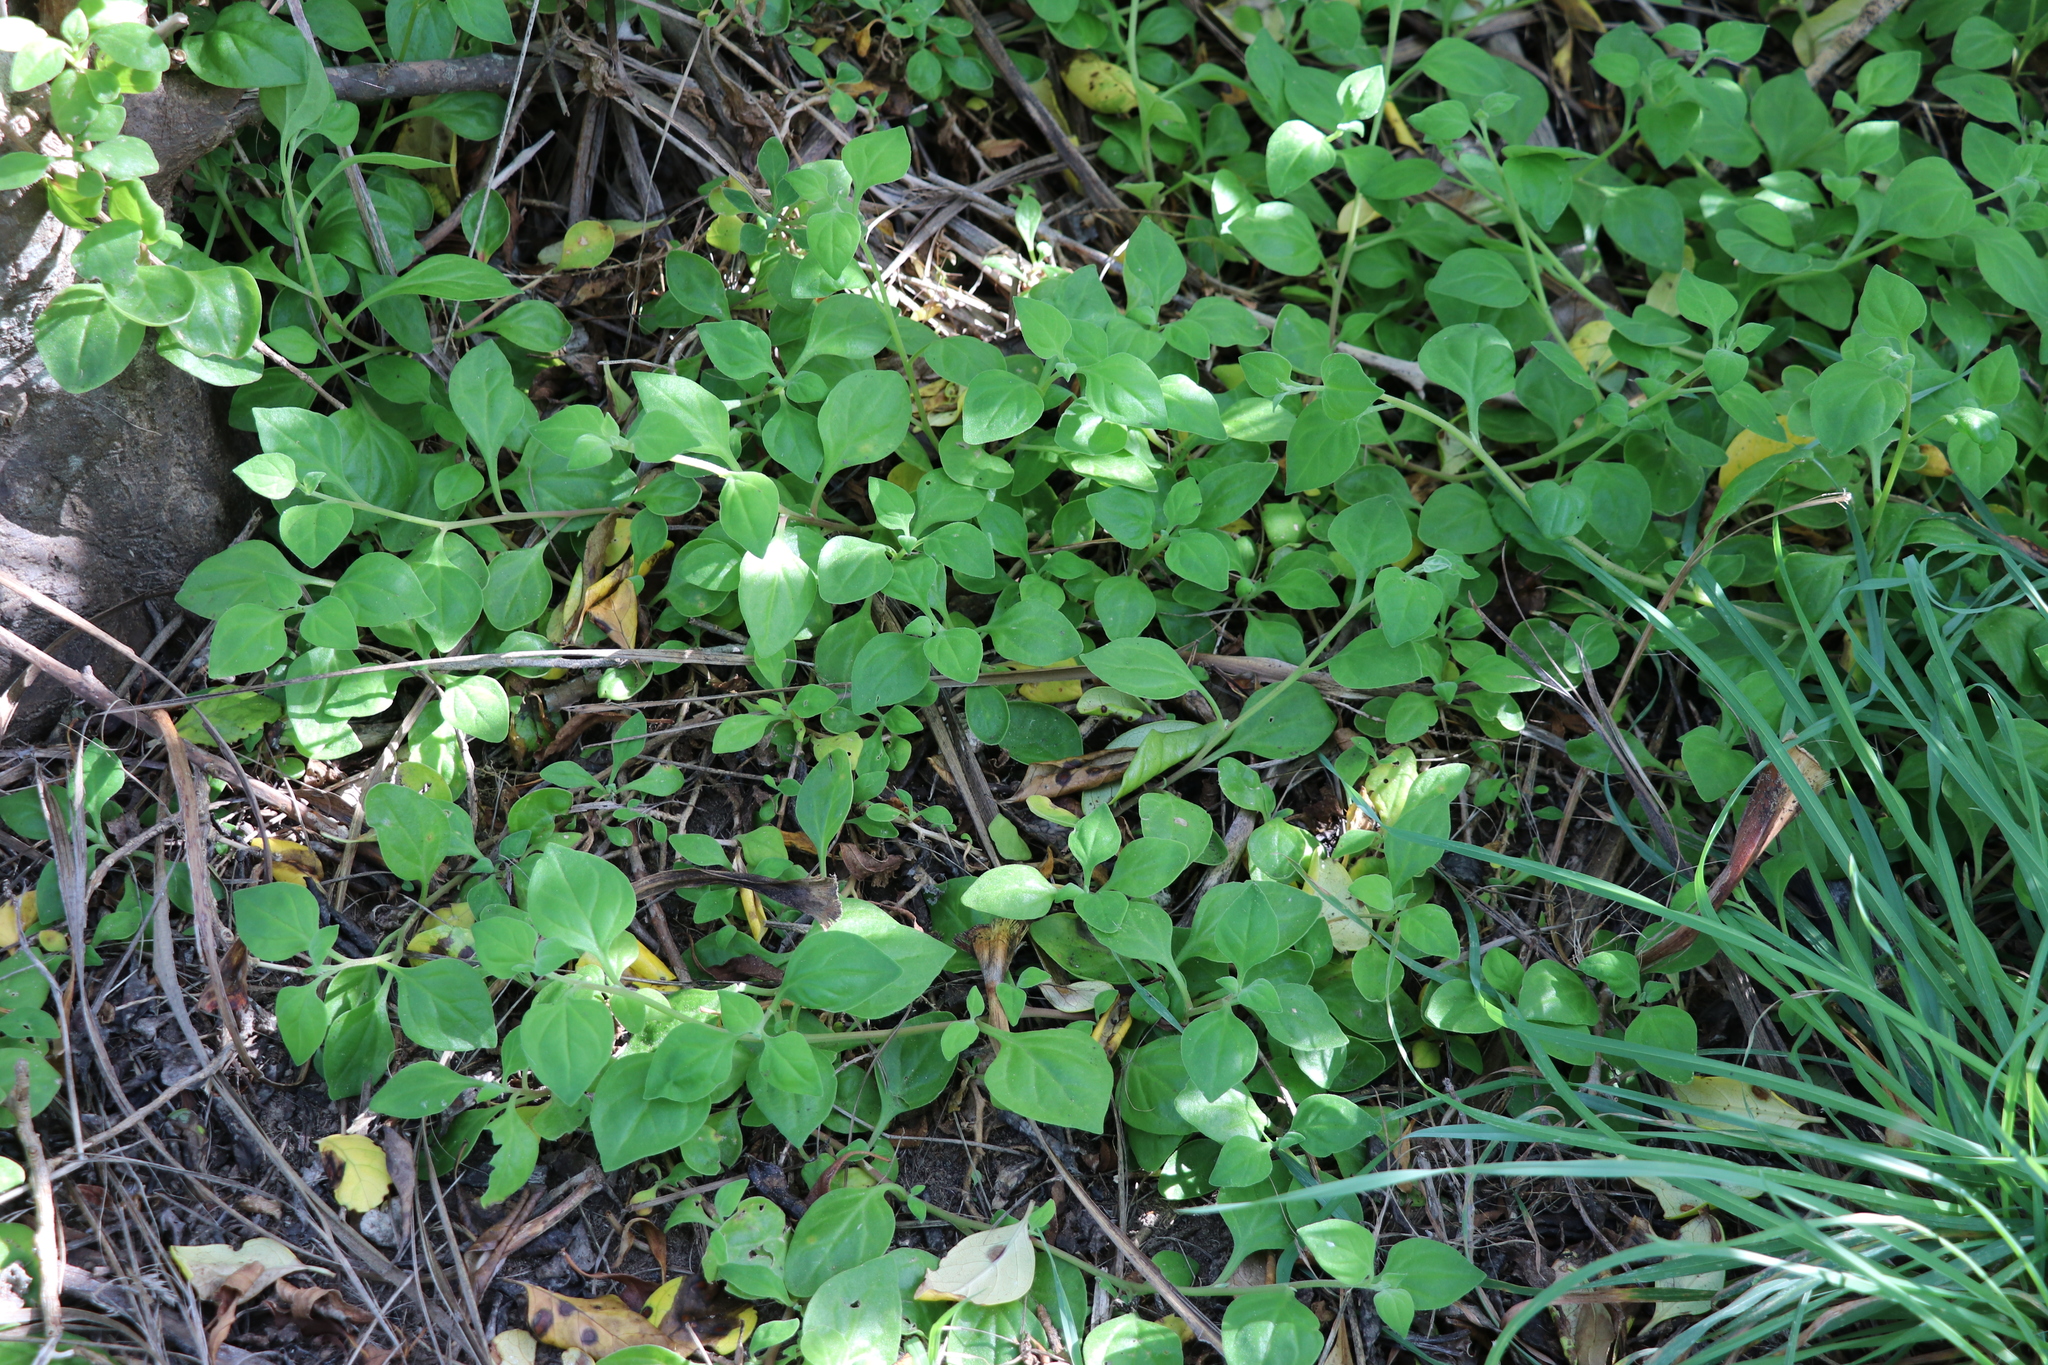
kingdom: Plantae
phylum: Tracheophyta
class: Magnoliopsida
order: Caryophyllales
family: Aizoaceae
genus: Tetragonia
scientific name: Tetragonia implexicoma
